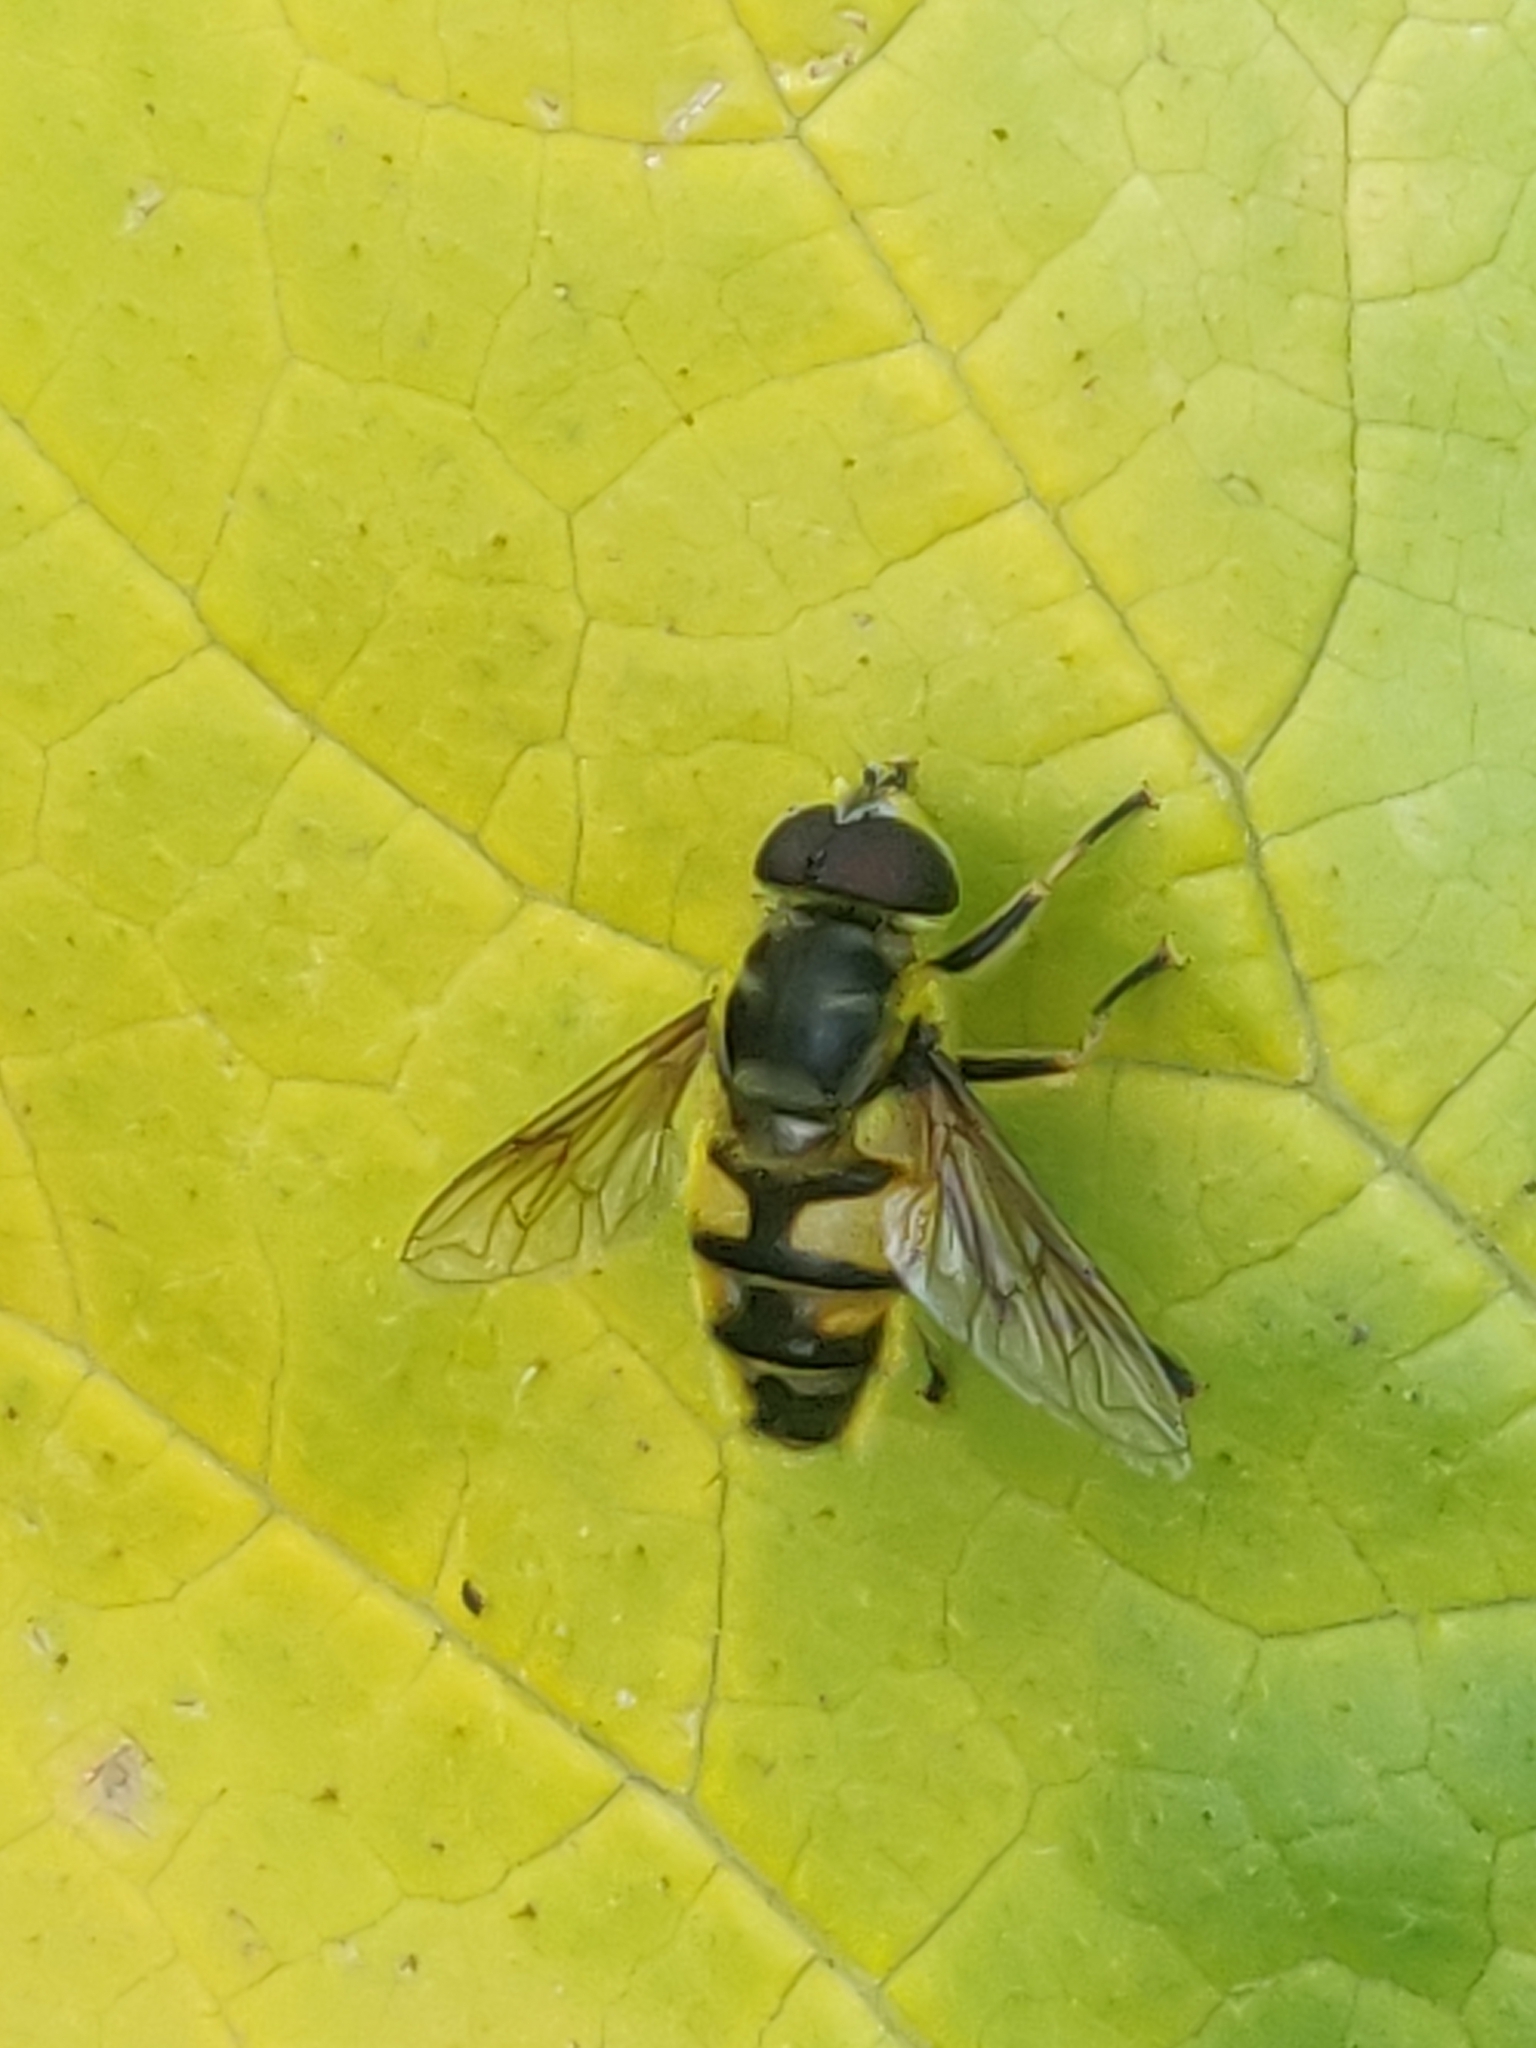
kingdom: Animalia
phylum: Arthropoda
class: Insecta
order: Diptera
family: Syrphidae
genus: Myathropa
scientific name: Myathropa florea
